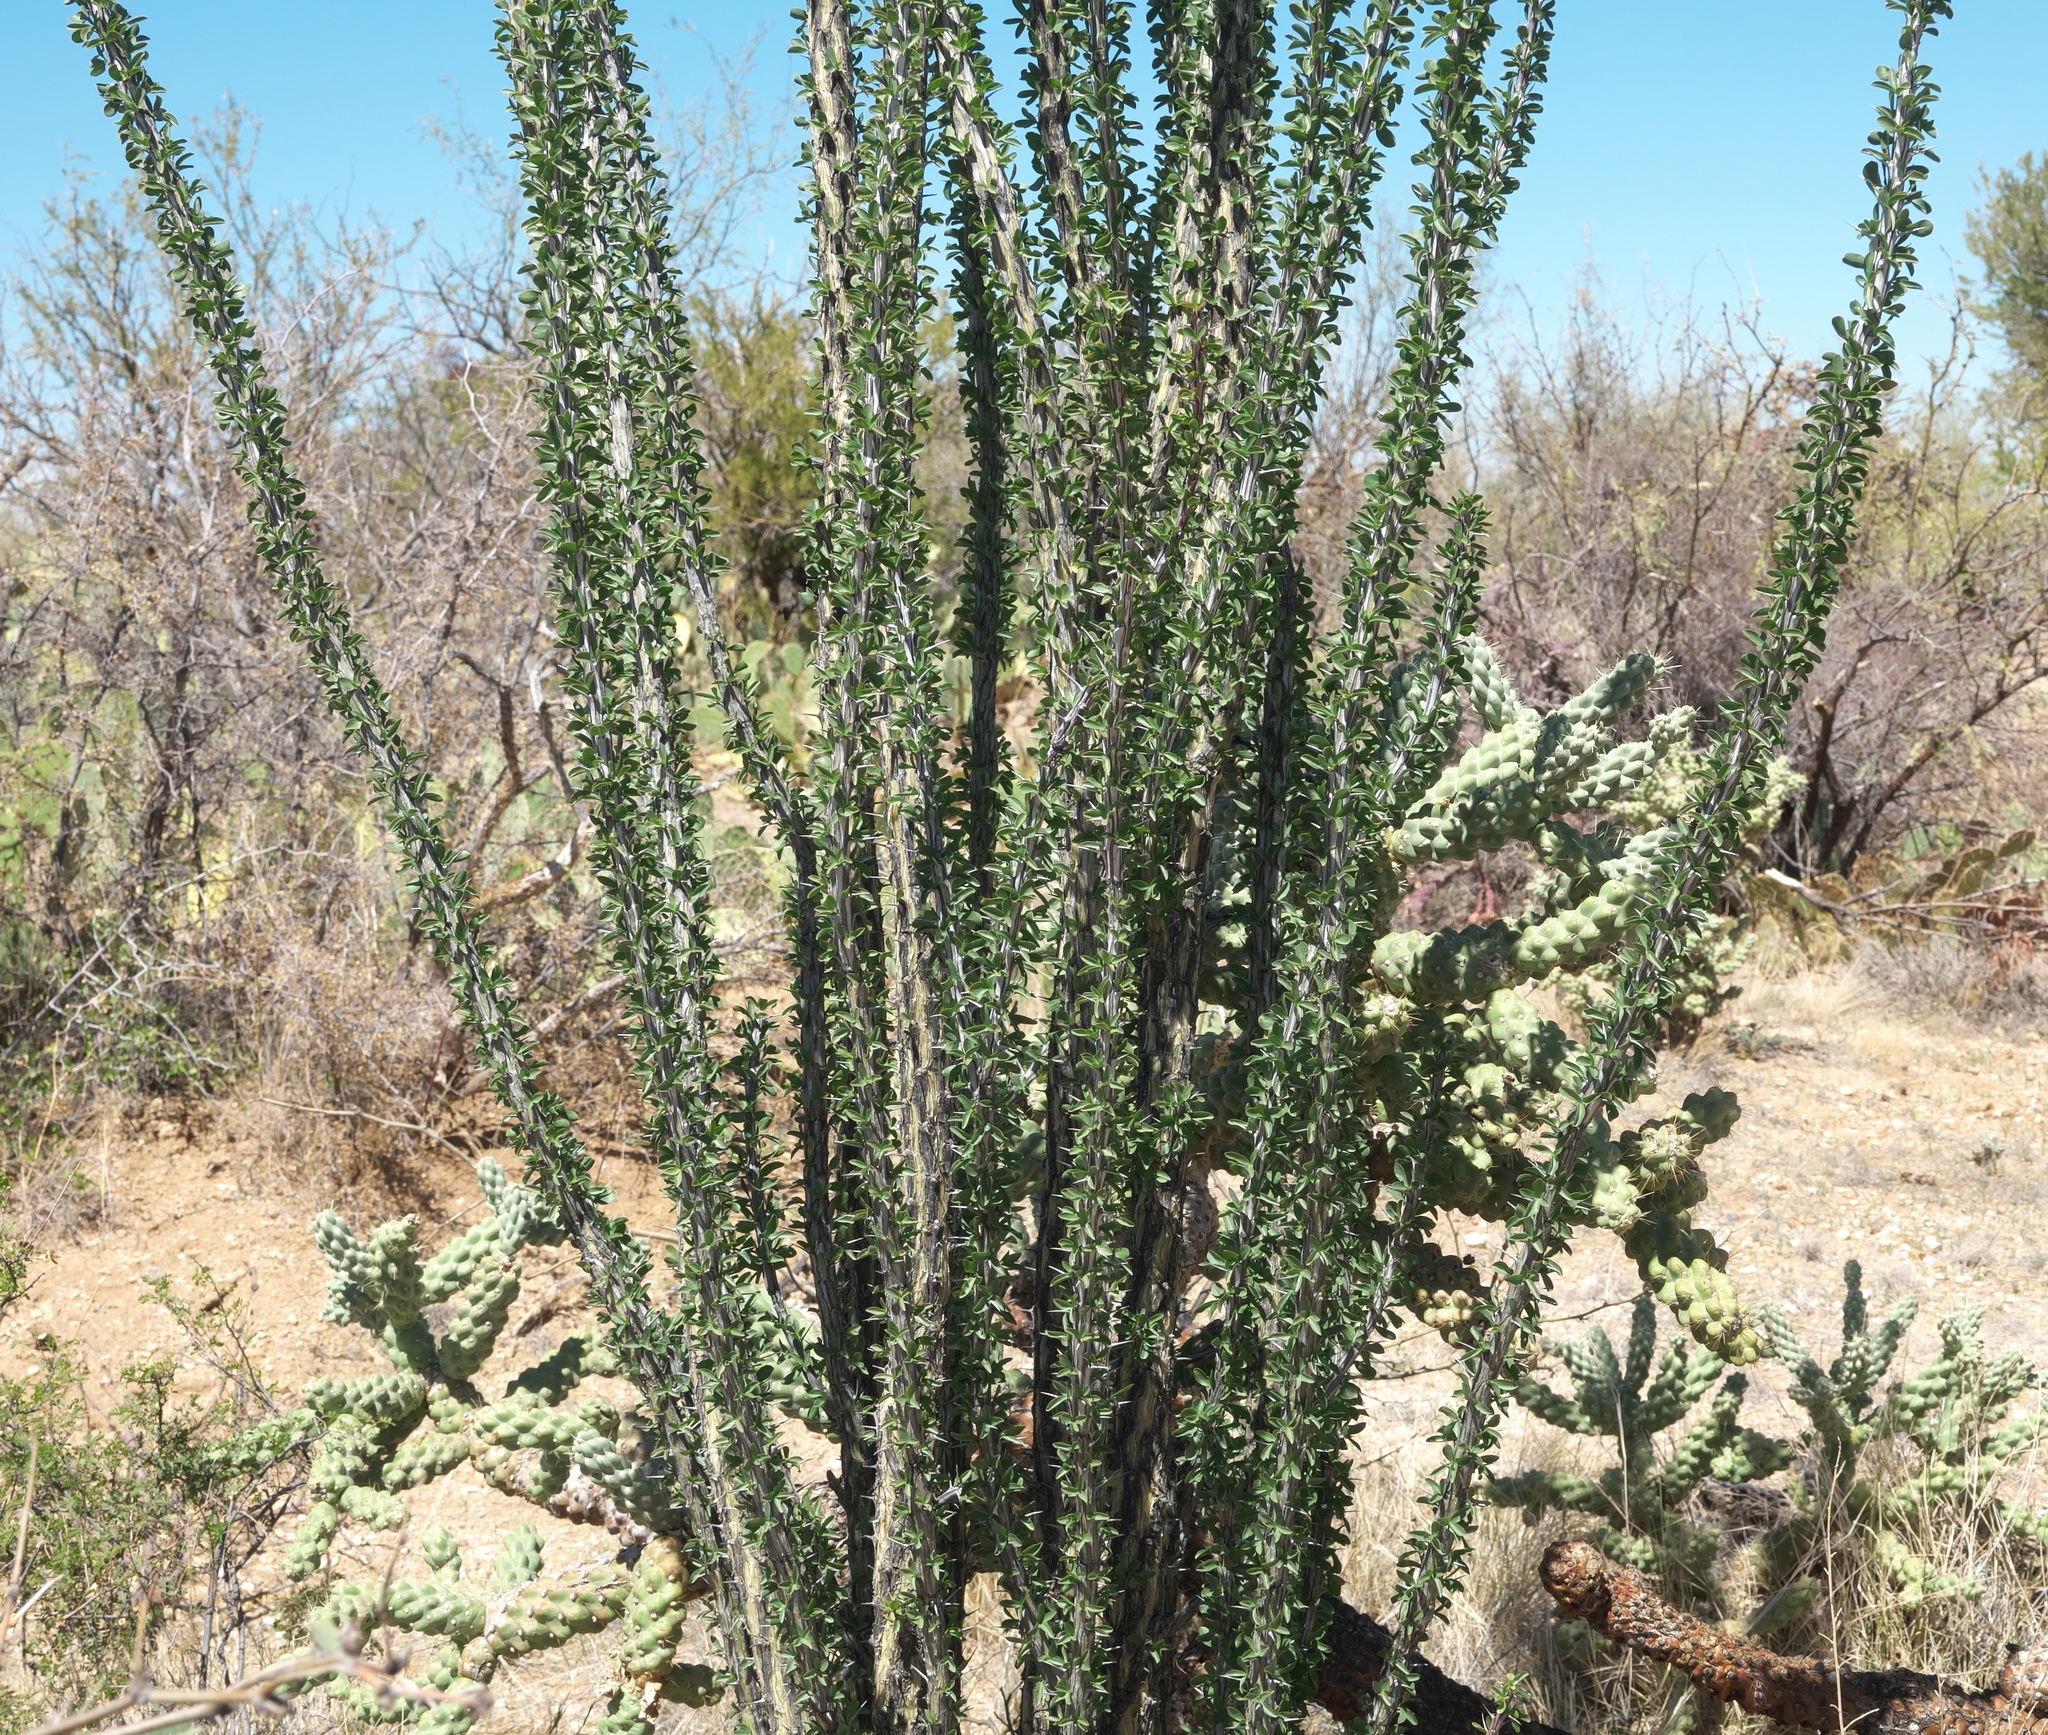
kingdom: Plantae
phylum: Tracheophyta
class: Magnoliopsida
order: Ericales
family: Fouquieriaceae
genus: Fouquieria
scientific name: Fouquieria splendens
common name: Vine-cactus
